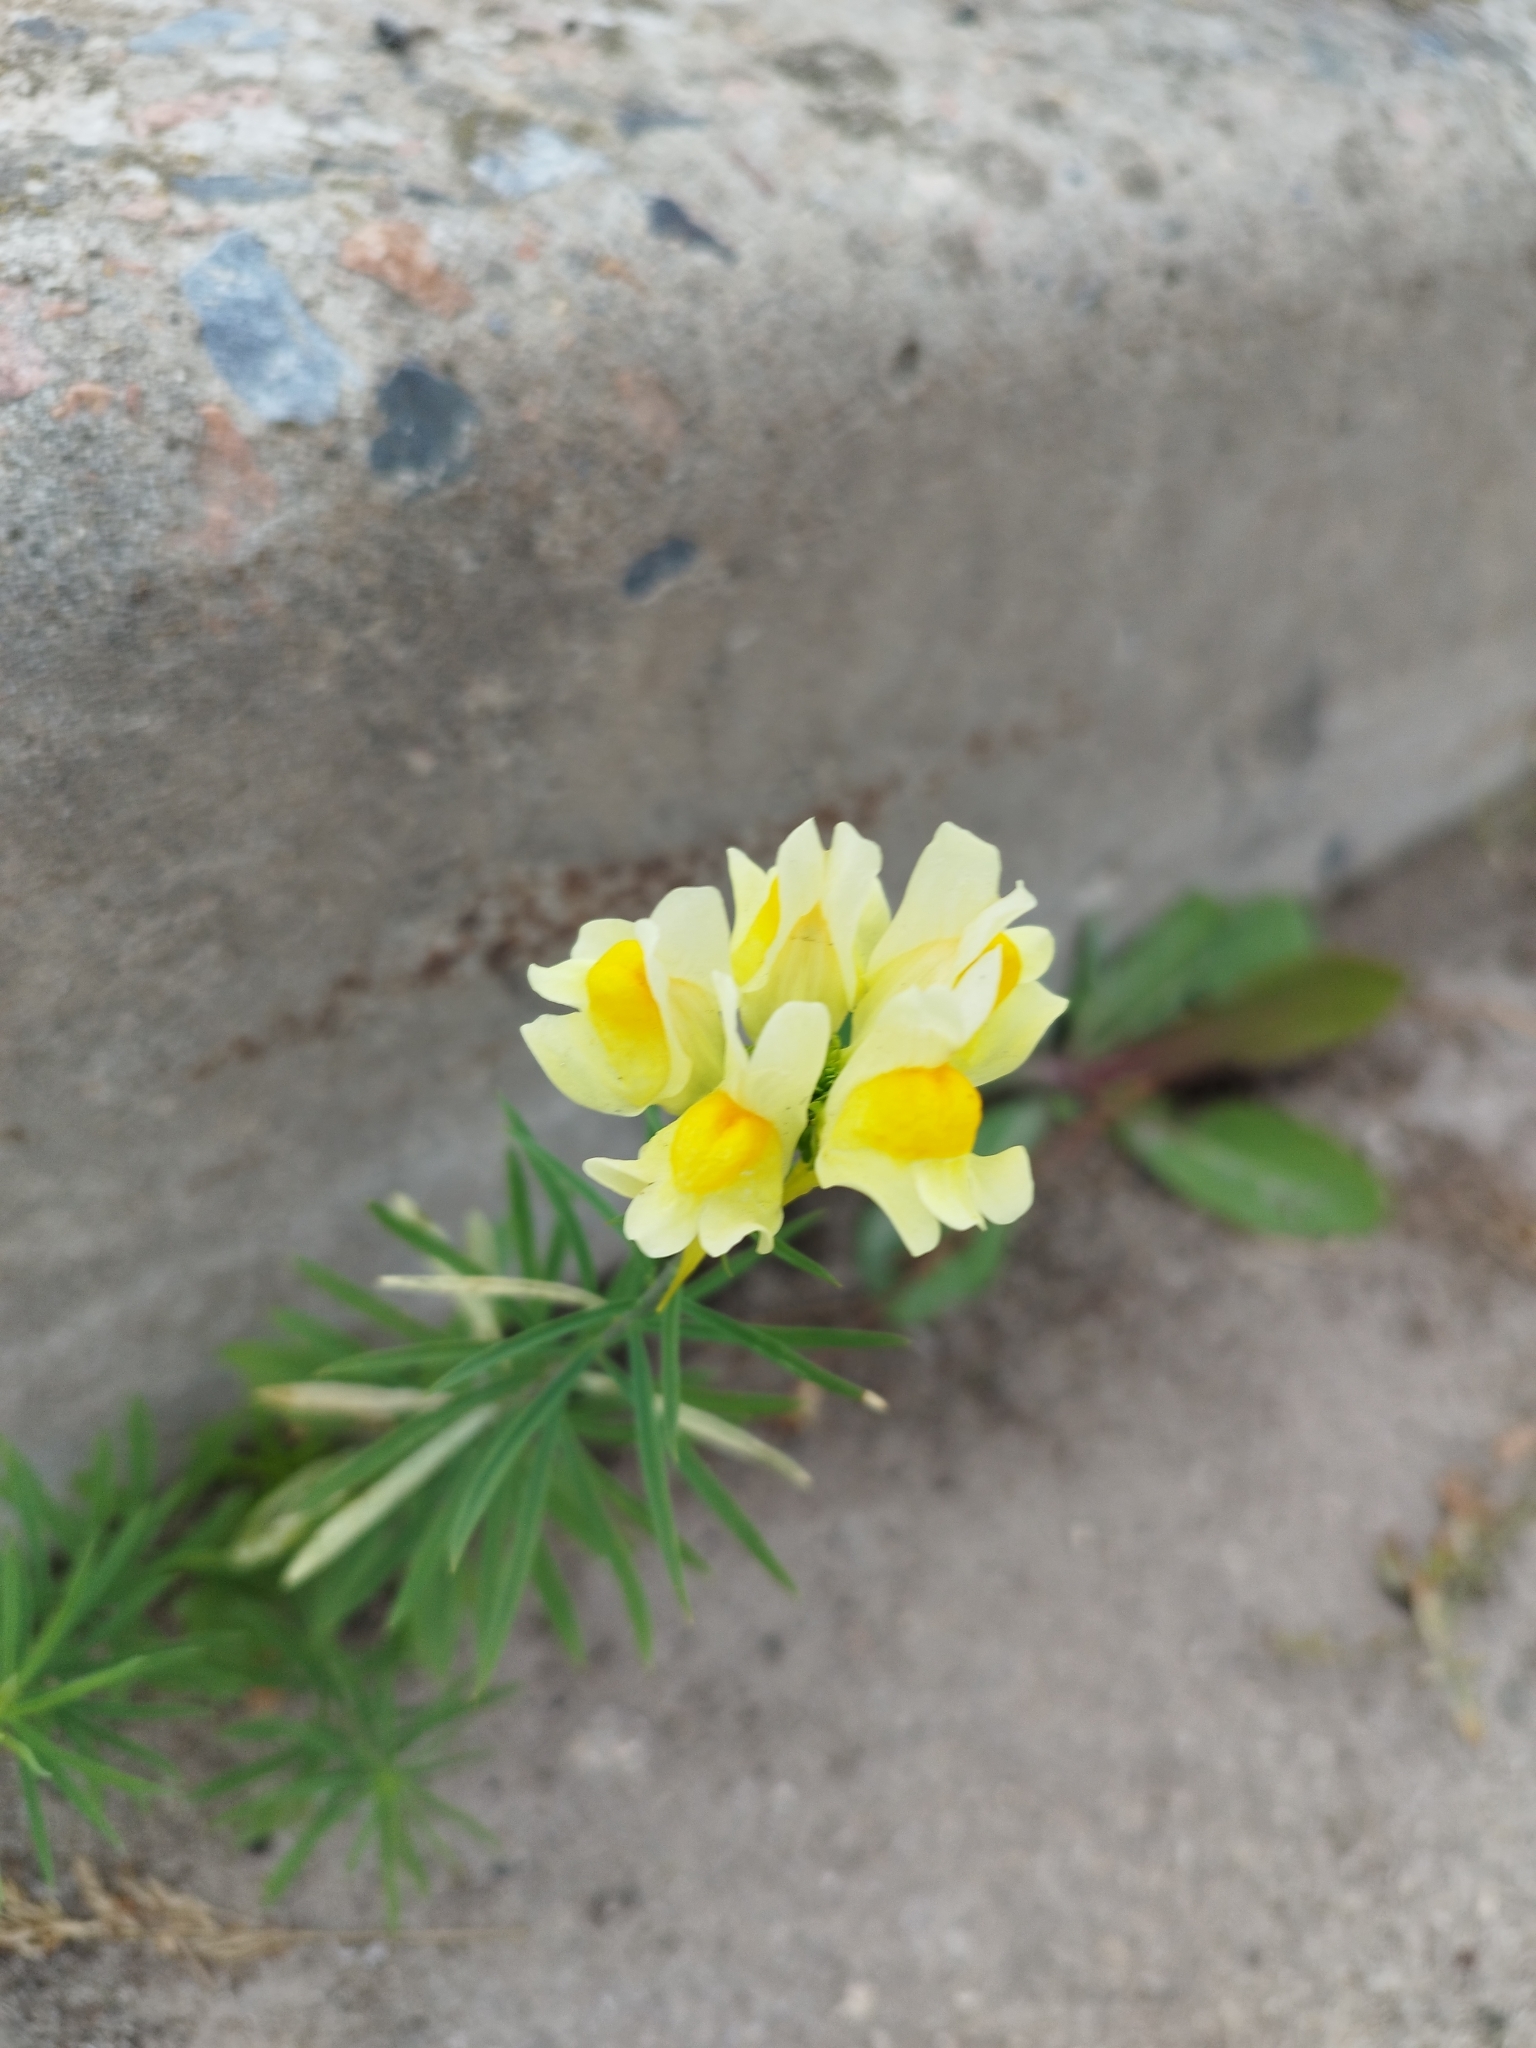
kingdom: Plantae
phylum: Tracheophyta
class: Magnoliopsida
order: Lamiales
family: Plantaginaceae
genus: Linaria
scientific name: Linaria vulgaris
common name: Butter and eggs
